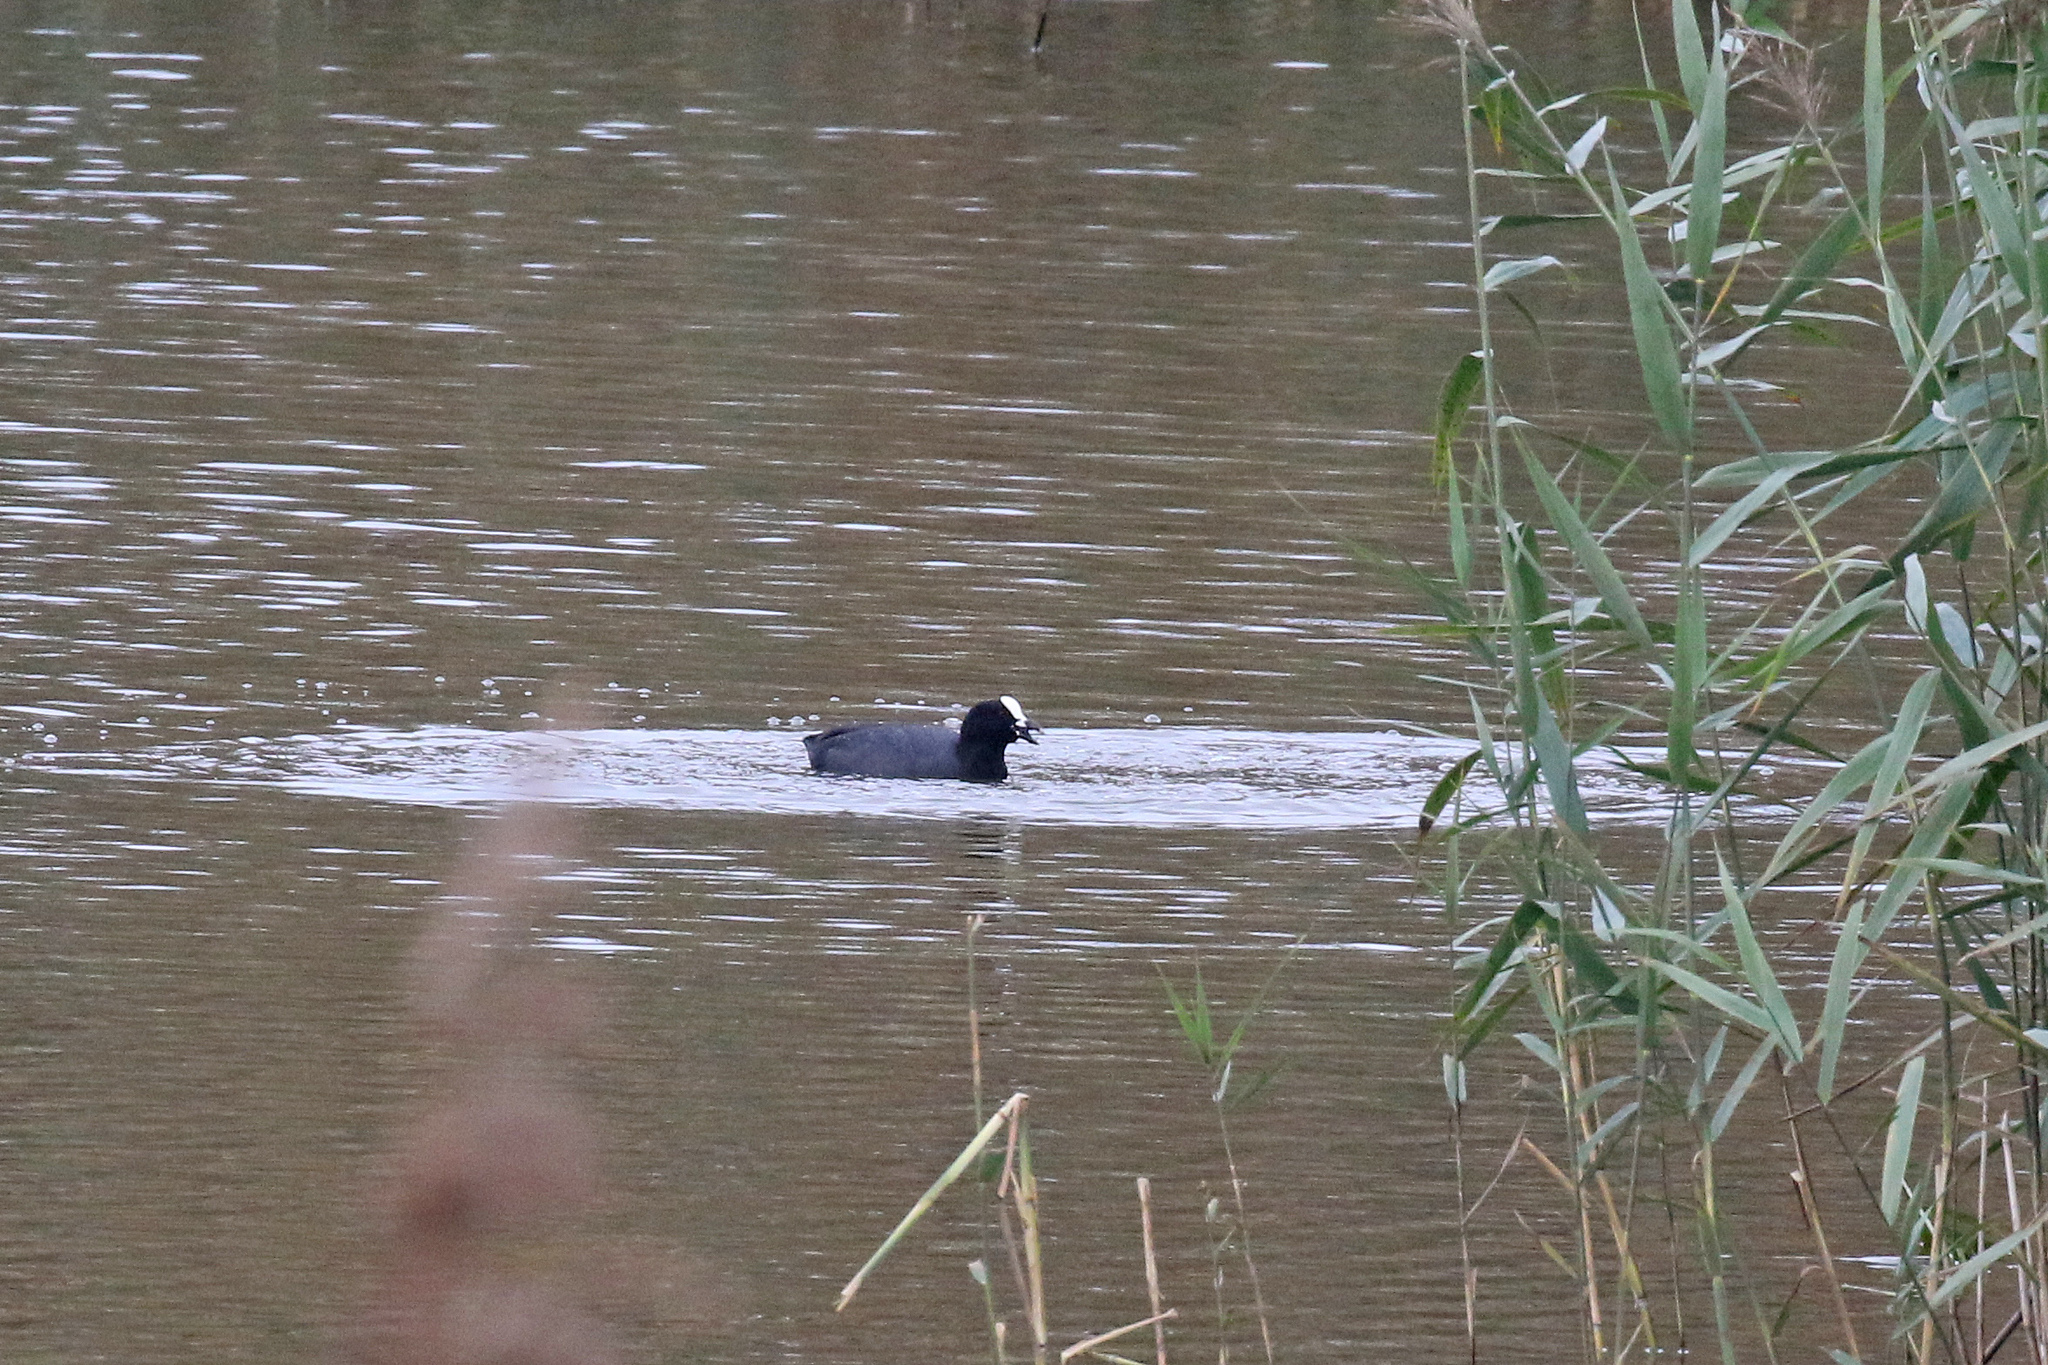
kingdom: Animalia
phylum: Chordata
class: Aves
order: Gruiformes
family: Rallidae
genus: Fulica
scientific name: Fulica atra
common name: Eurasian coot
